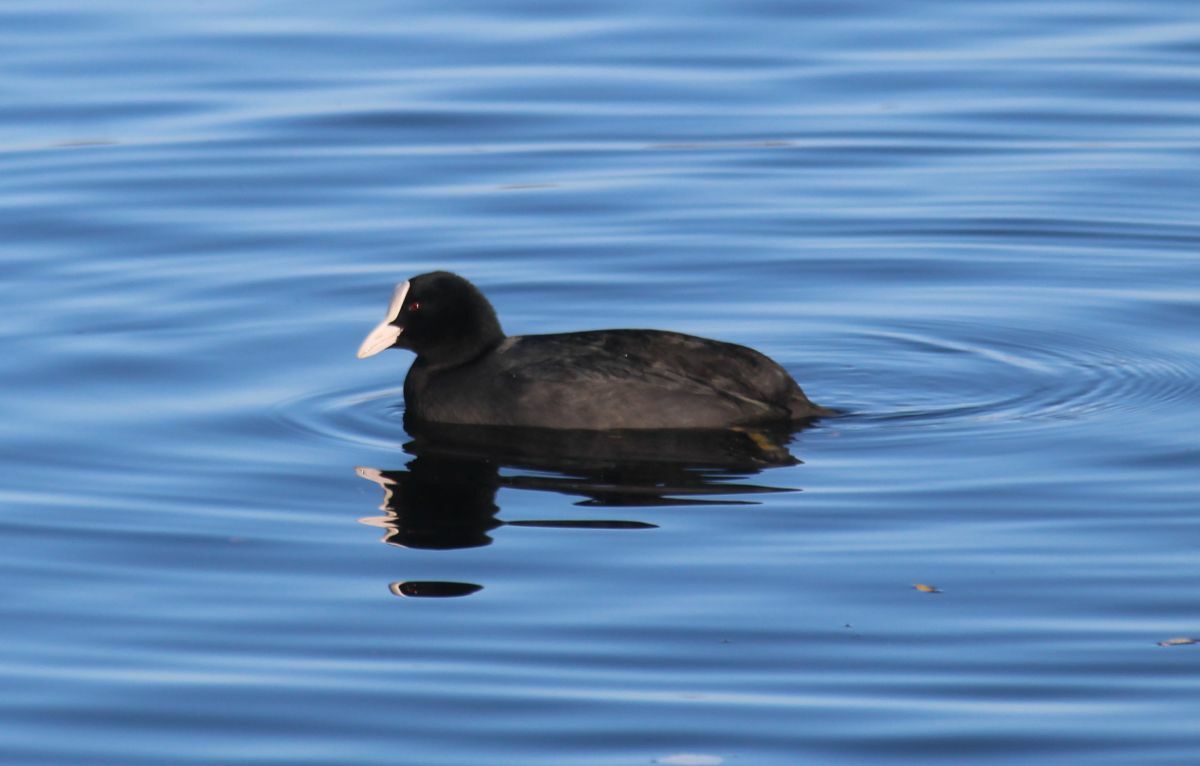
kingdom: Animalia
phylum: Chordata
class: Aves
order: Gruiformes
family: Rallidae
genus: Fulica
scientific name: Fulica atra
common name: Eurasian coot
